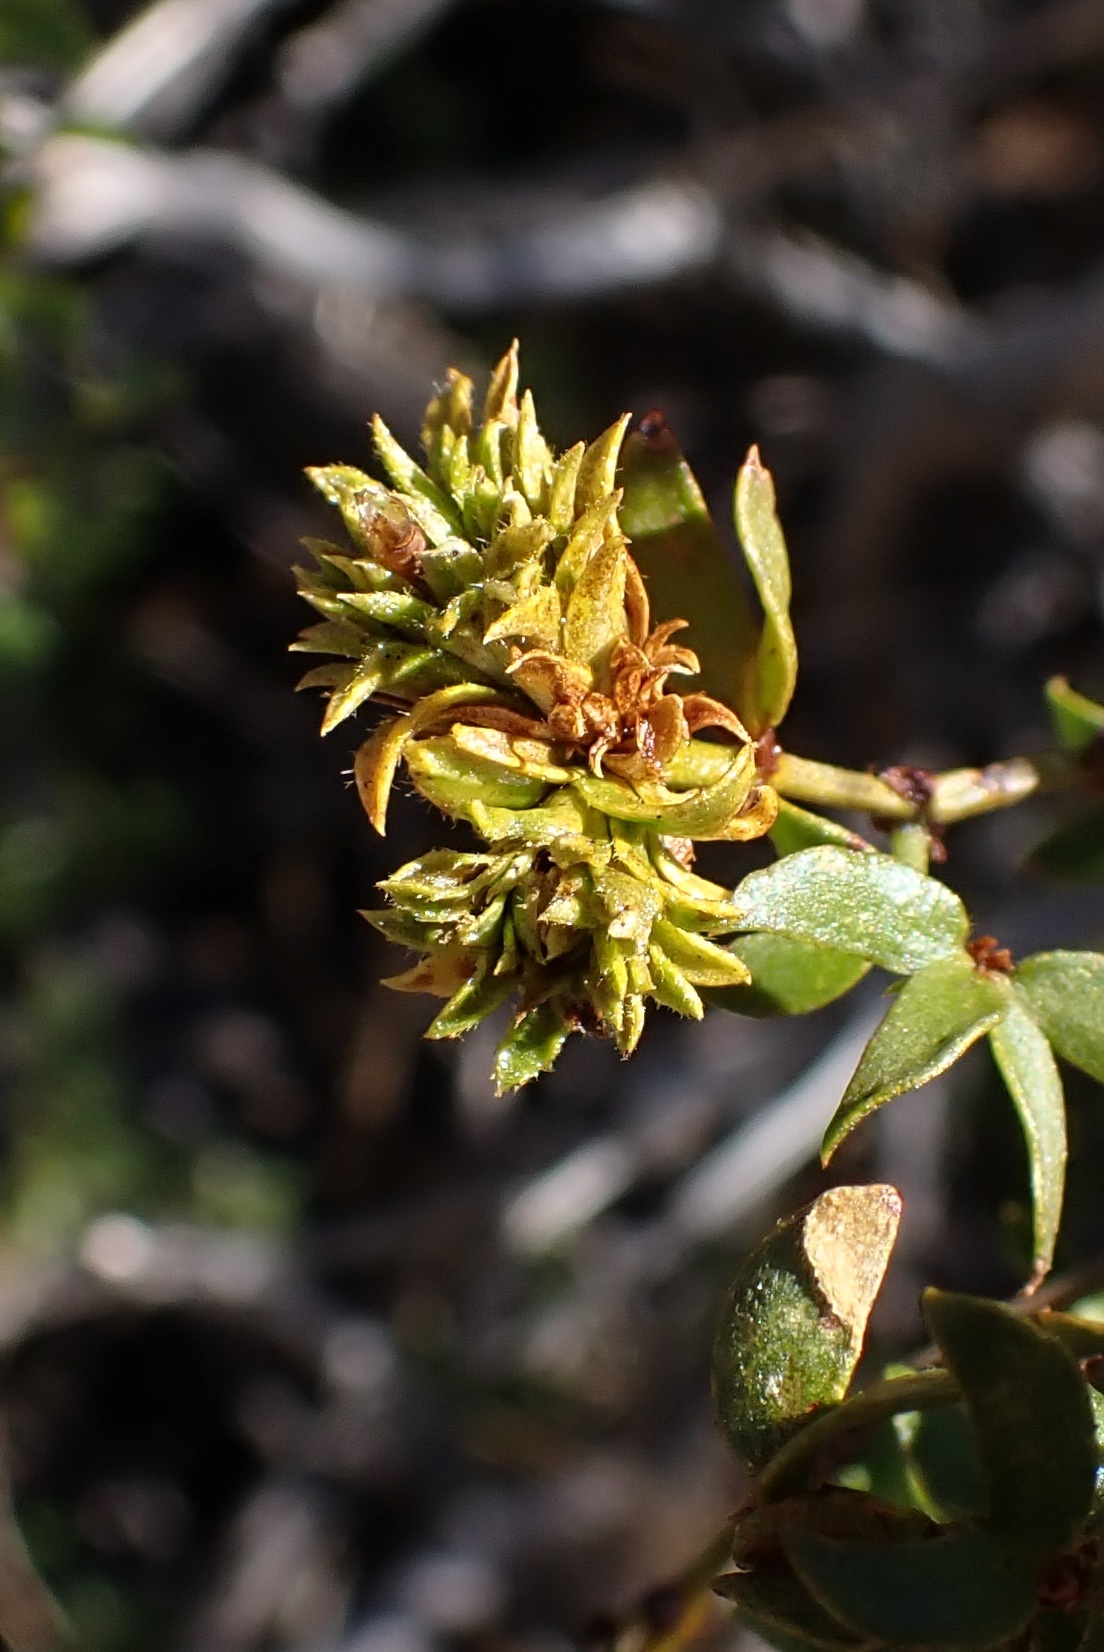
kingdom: Animalia
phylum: Arthropoda
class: Insecta
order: Diptera
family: Cecidomyiidae
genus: Asphondylia
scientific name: Asphondylia rosetta
